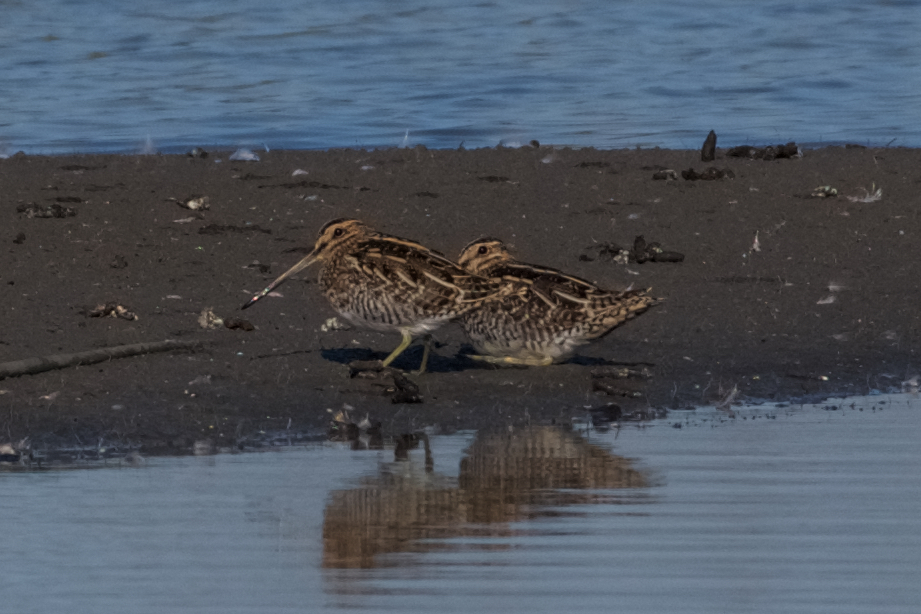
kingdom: Animalia
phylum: Chordata
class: Aves
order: Charadriiformes
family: Scolopacidae
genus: Gallinago
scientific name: Gallinago delicata
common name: Wilson's snipe
